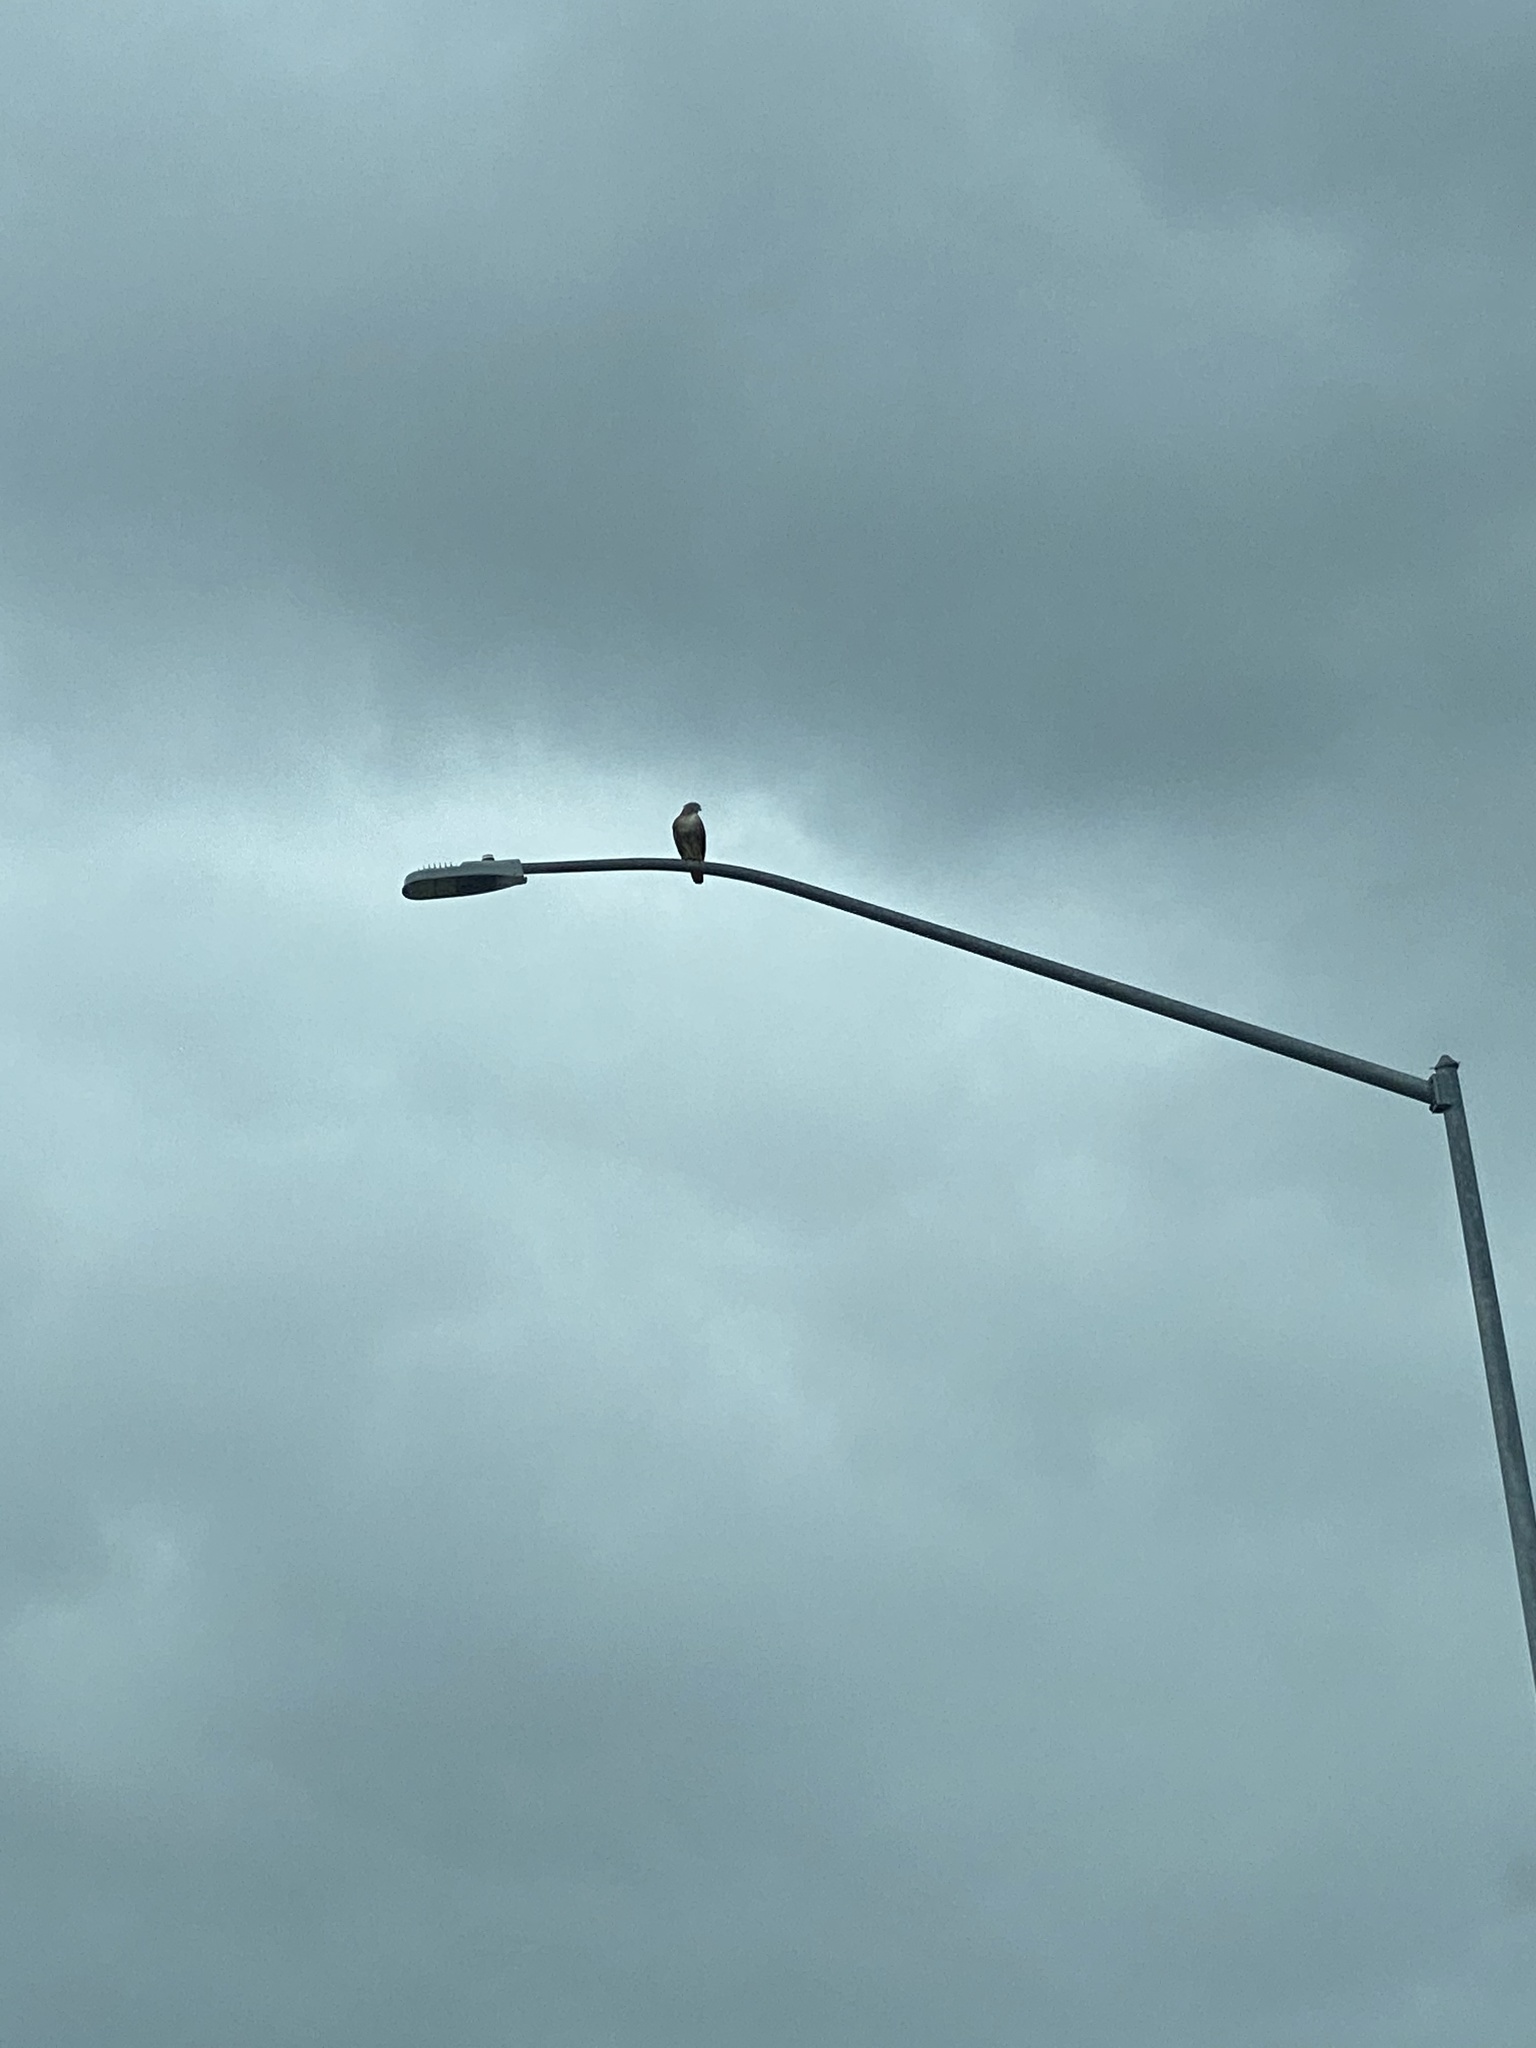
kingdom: Animalia
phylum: Chordata
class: Aves
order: Accipitriformes
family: Accipitridae
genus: Buteo
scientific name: Buteo jamaicensis
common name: Red-tailed hawk
